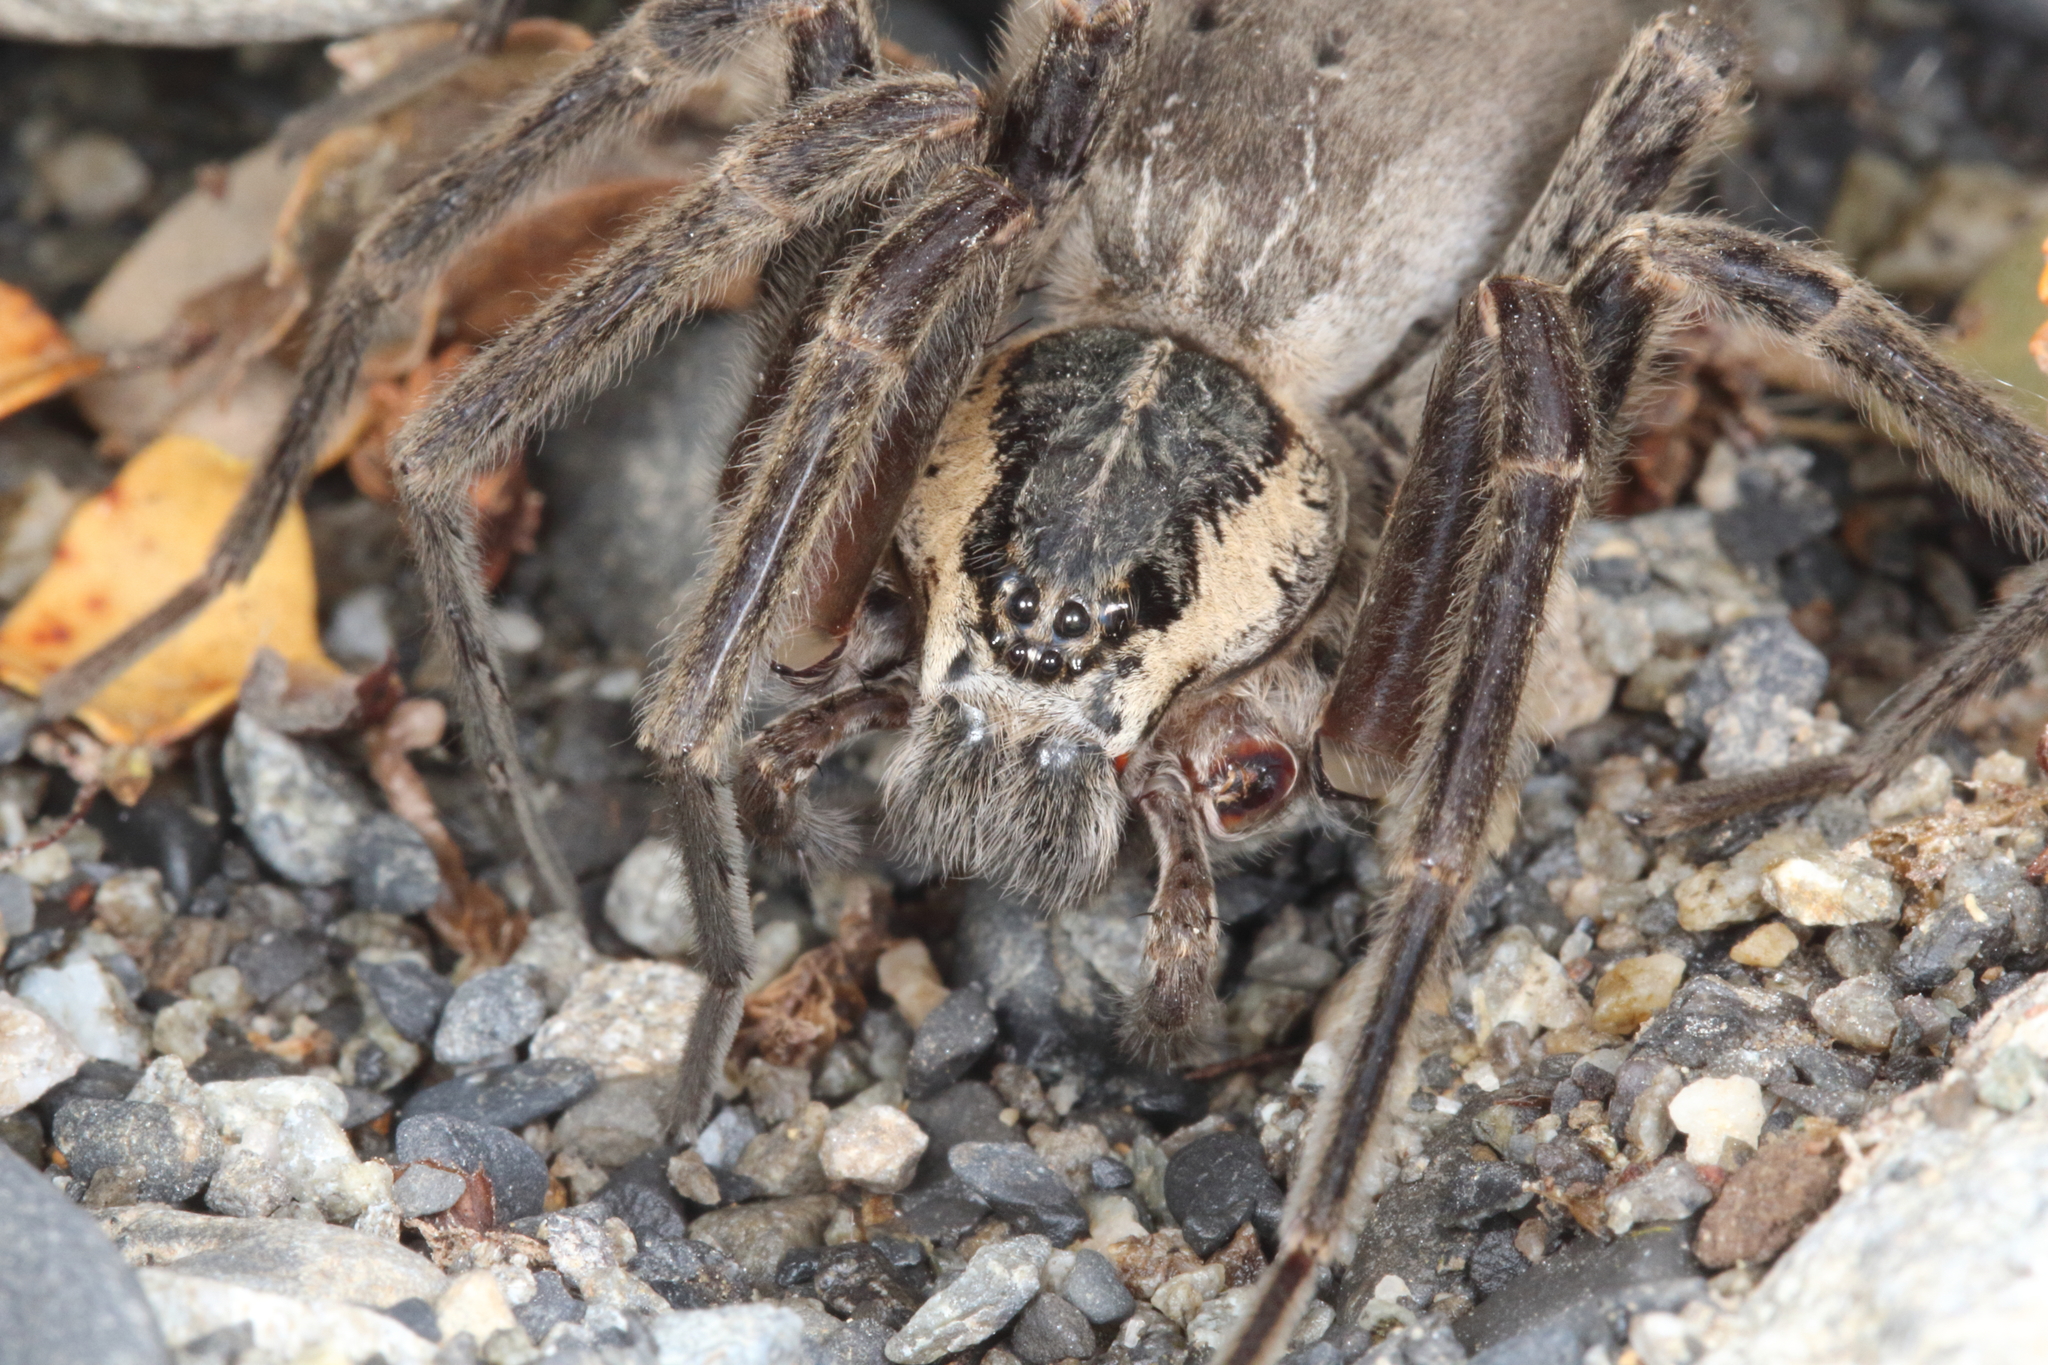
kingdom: Animalia
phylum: Arthropoda
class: Arachnida
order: Araneae
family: Pisauridae
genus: Dolomedes
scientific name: Dolomedes aquaticus
